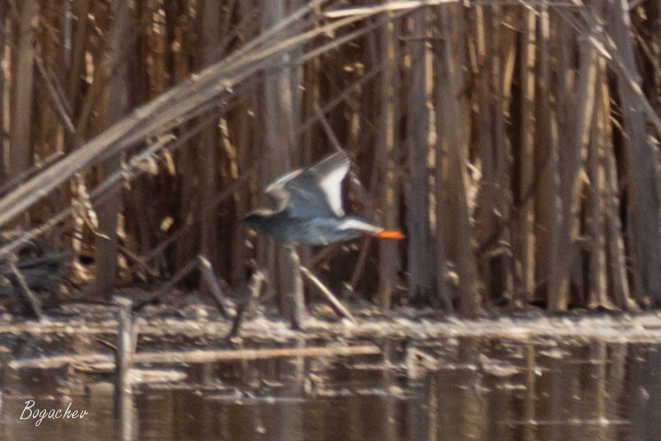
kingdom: Animalia
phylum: Chordata
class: Aves
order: Charadriiformes
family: Scolopacidae
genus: Tringa
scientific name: Tringa totanus
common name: Common redshank
